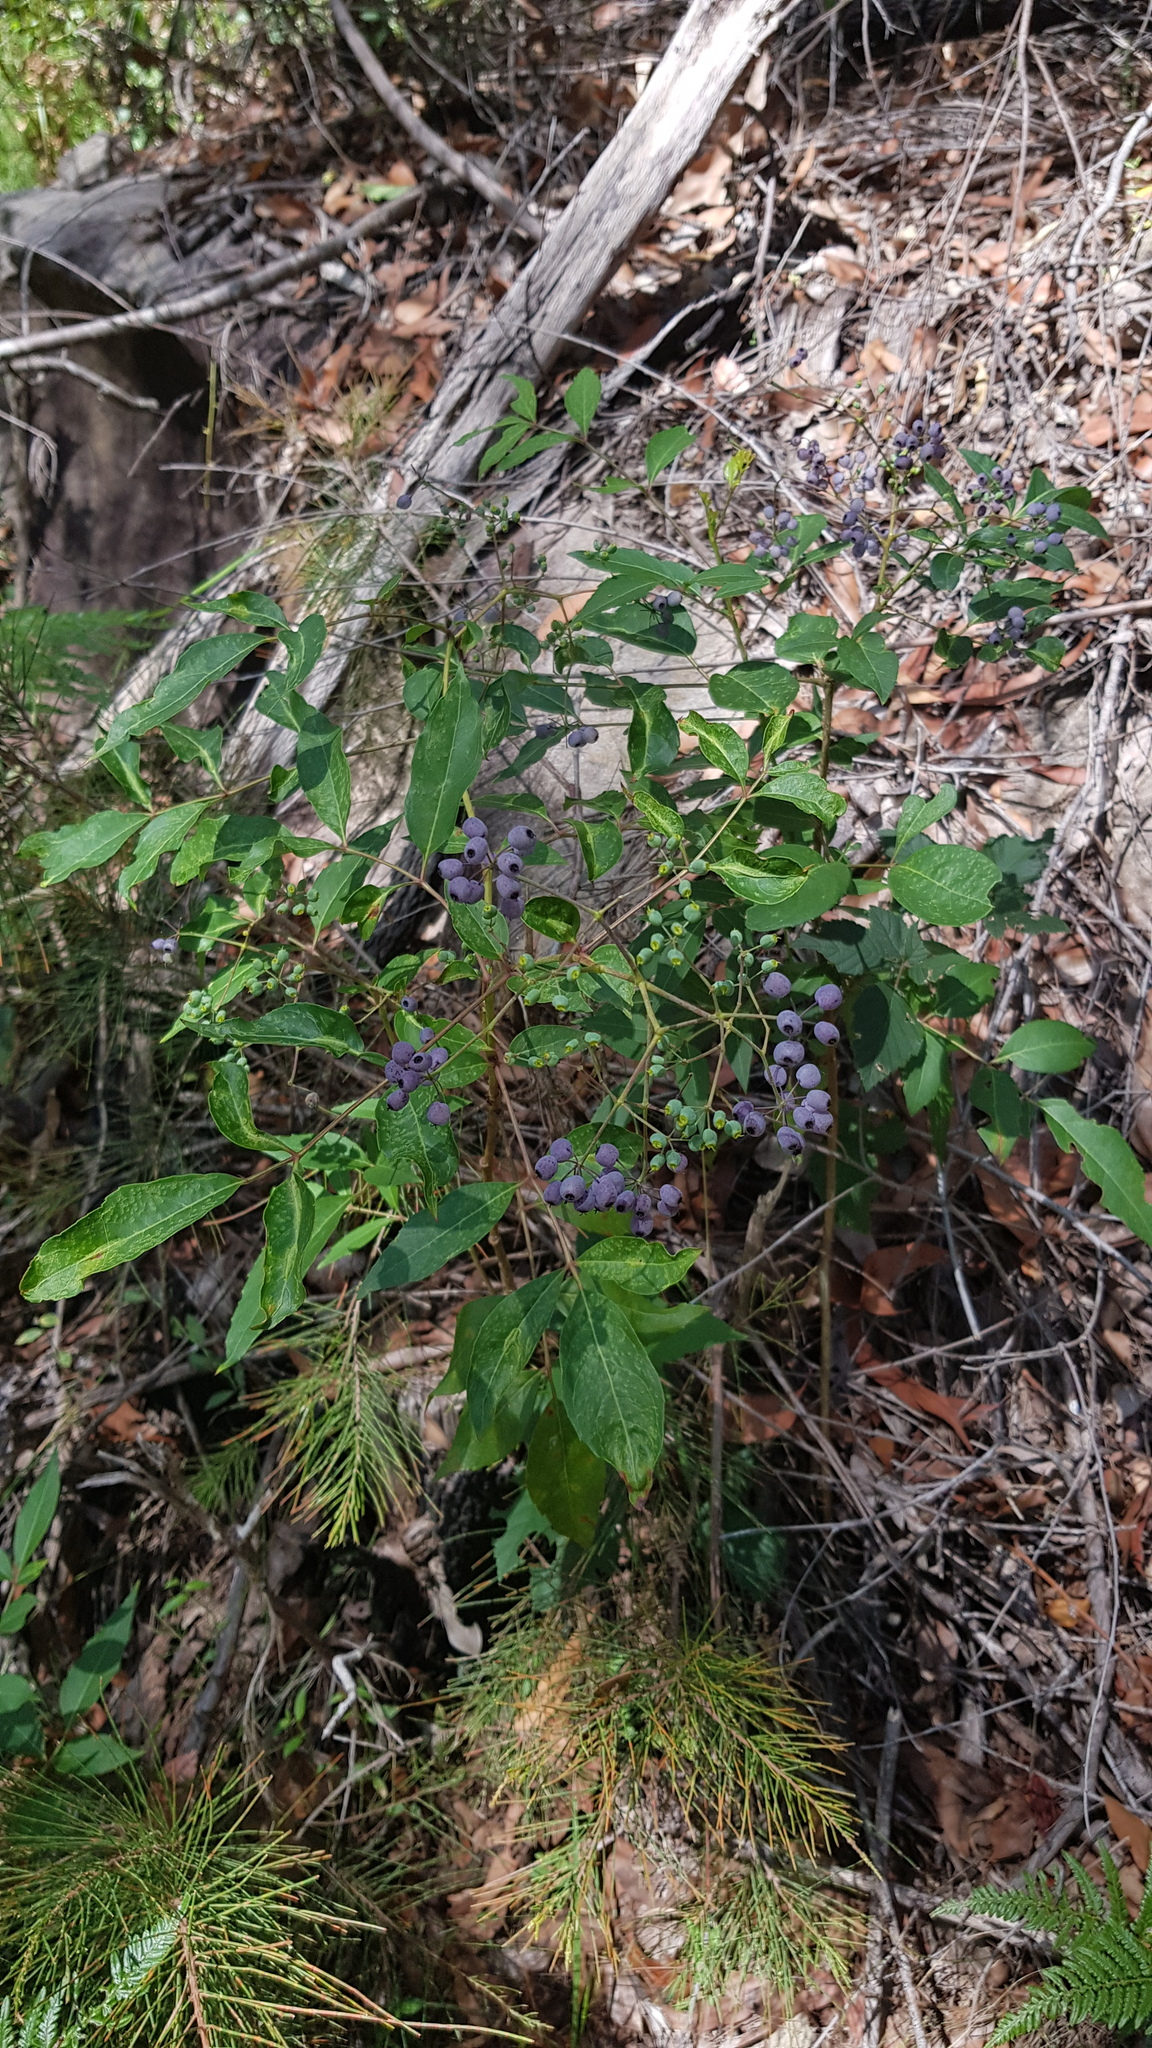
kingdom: Plantae
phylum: Tracheophyta
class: Magnoliopsida
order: Apiales
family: Araliaceae
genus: Polyscias
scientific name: Polyscias sambucifolia
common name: Elderberry-ash
